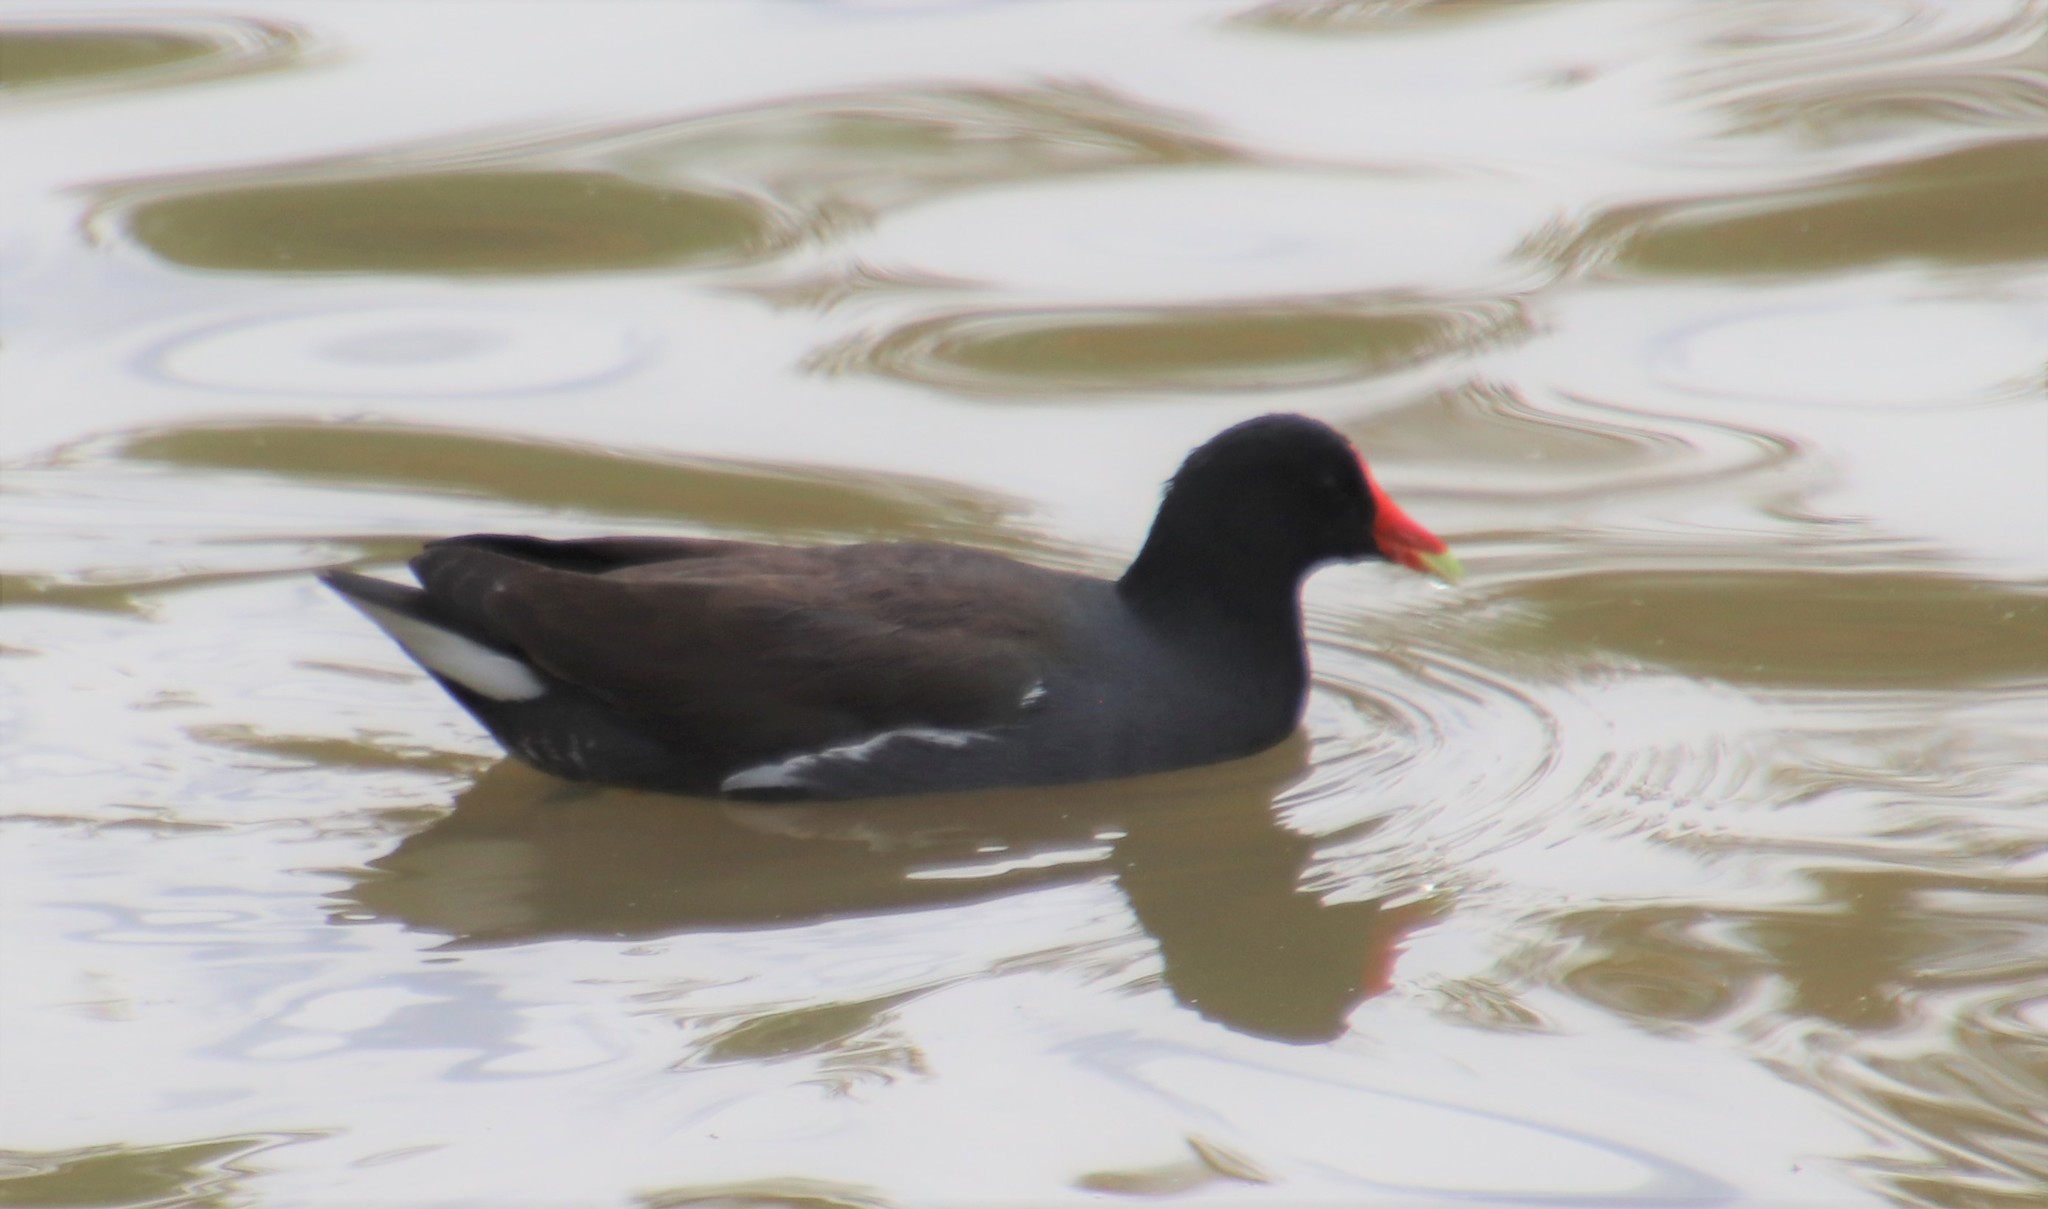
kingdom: Animalia
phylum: Chordata
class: Aves
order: Gruiformes
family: Rallidae
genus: Gallinula
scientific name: Gallinula chloropus
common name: Common moorhen
